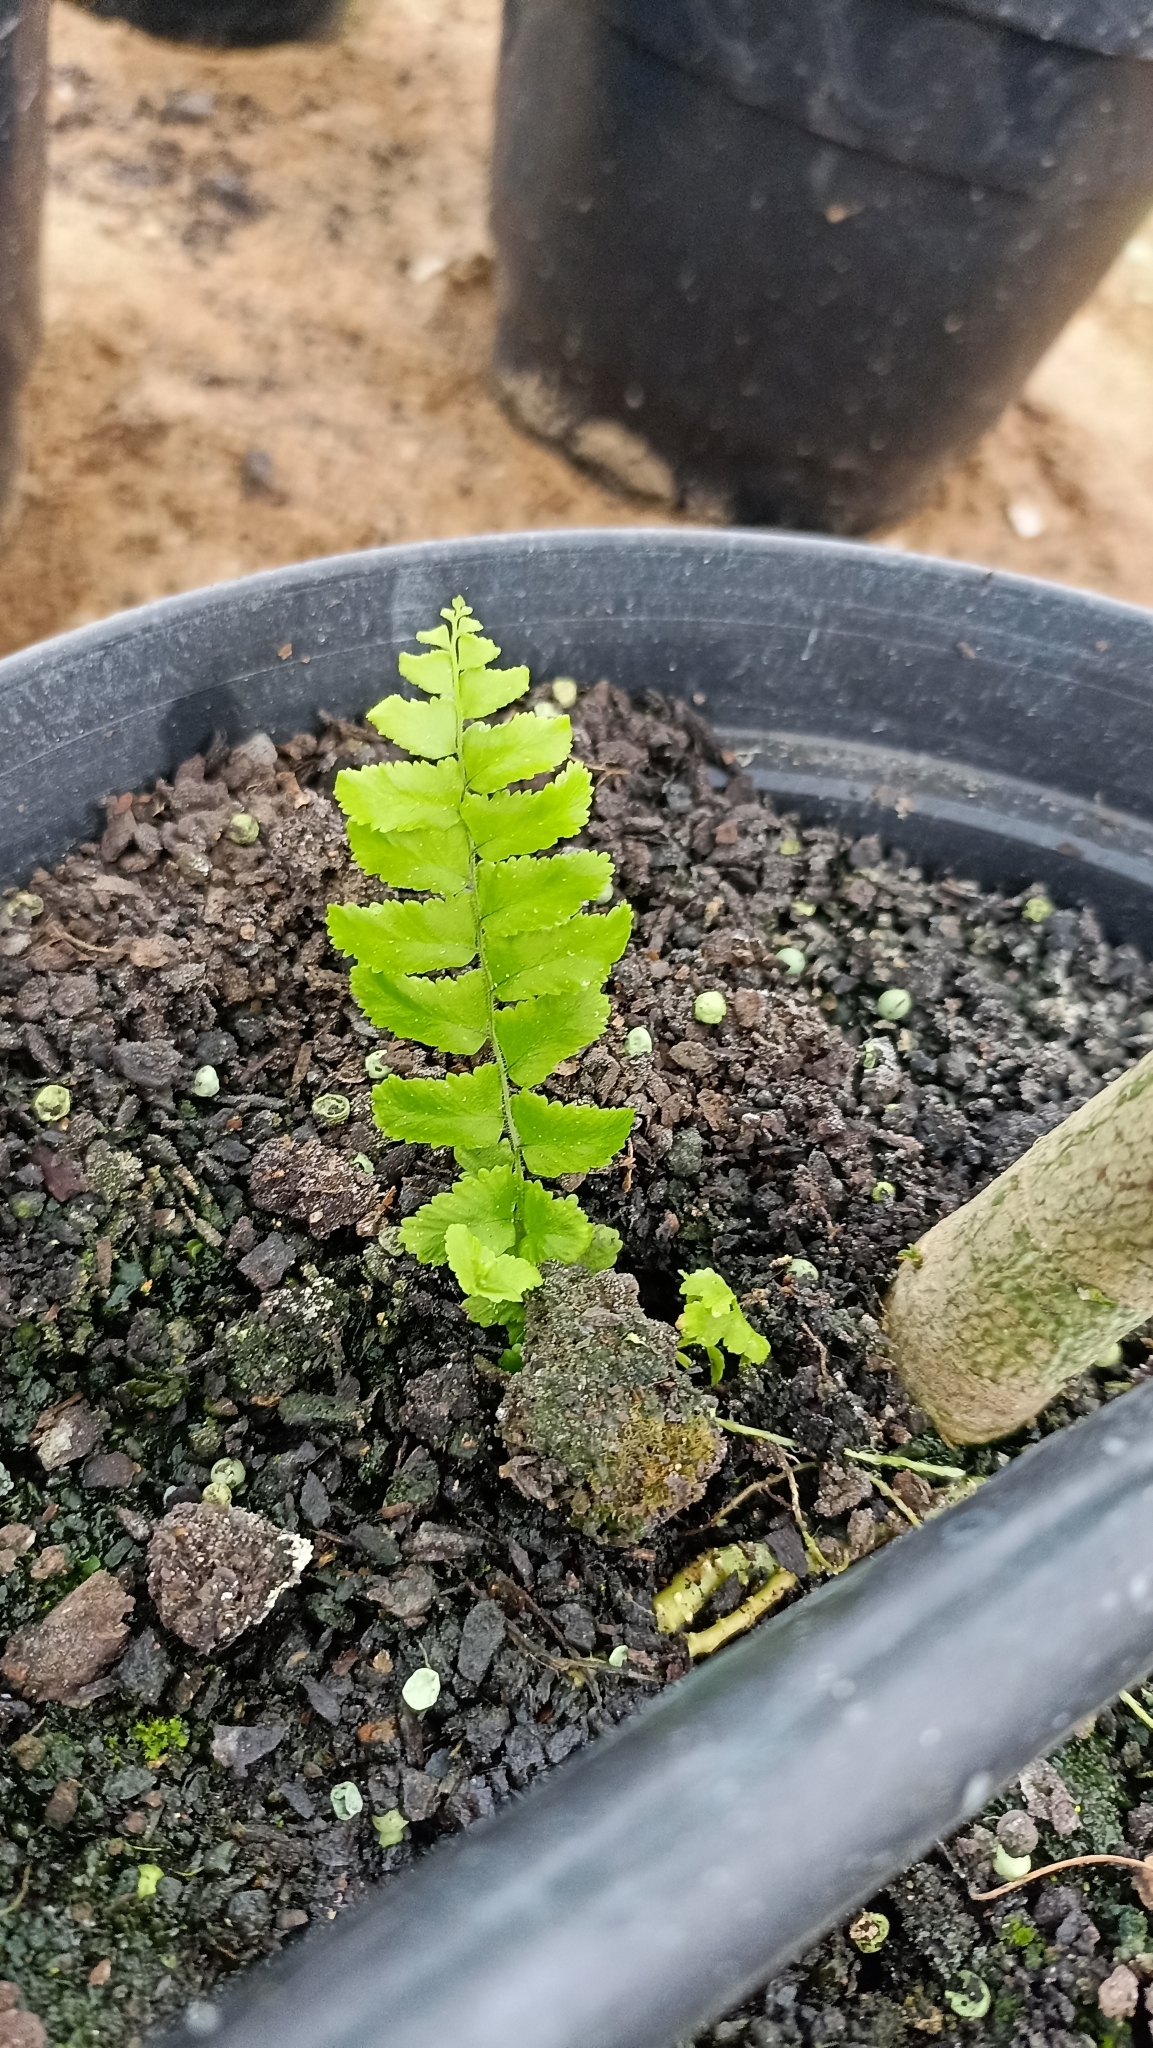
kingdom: Plantae
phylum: Tracheophyta
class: Polypodiopsida
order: Polypodiales
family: Nephrolepidaceae
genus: Nephrolepis
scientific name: Nephrolepis exaltata
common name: Sword fern
